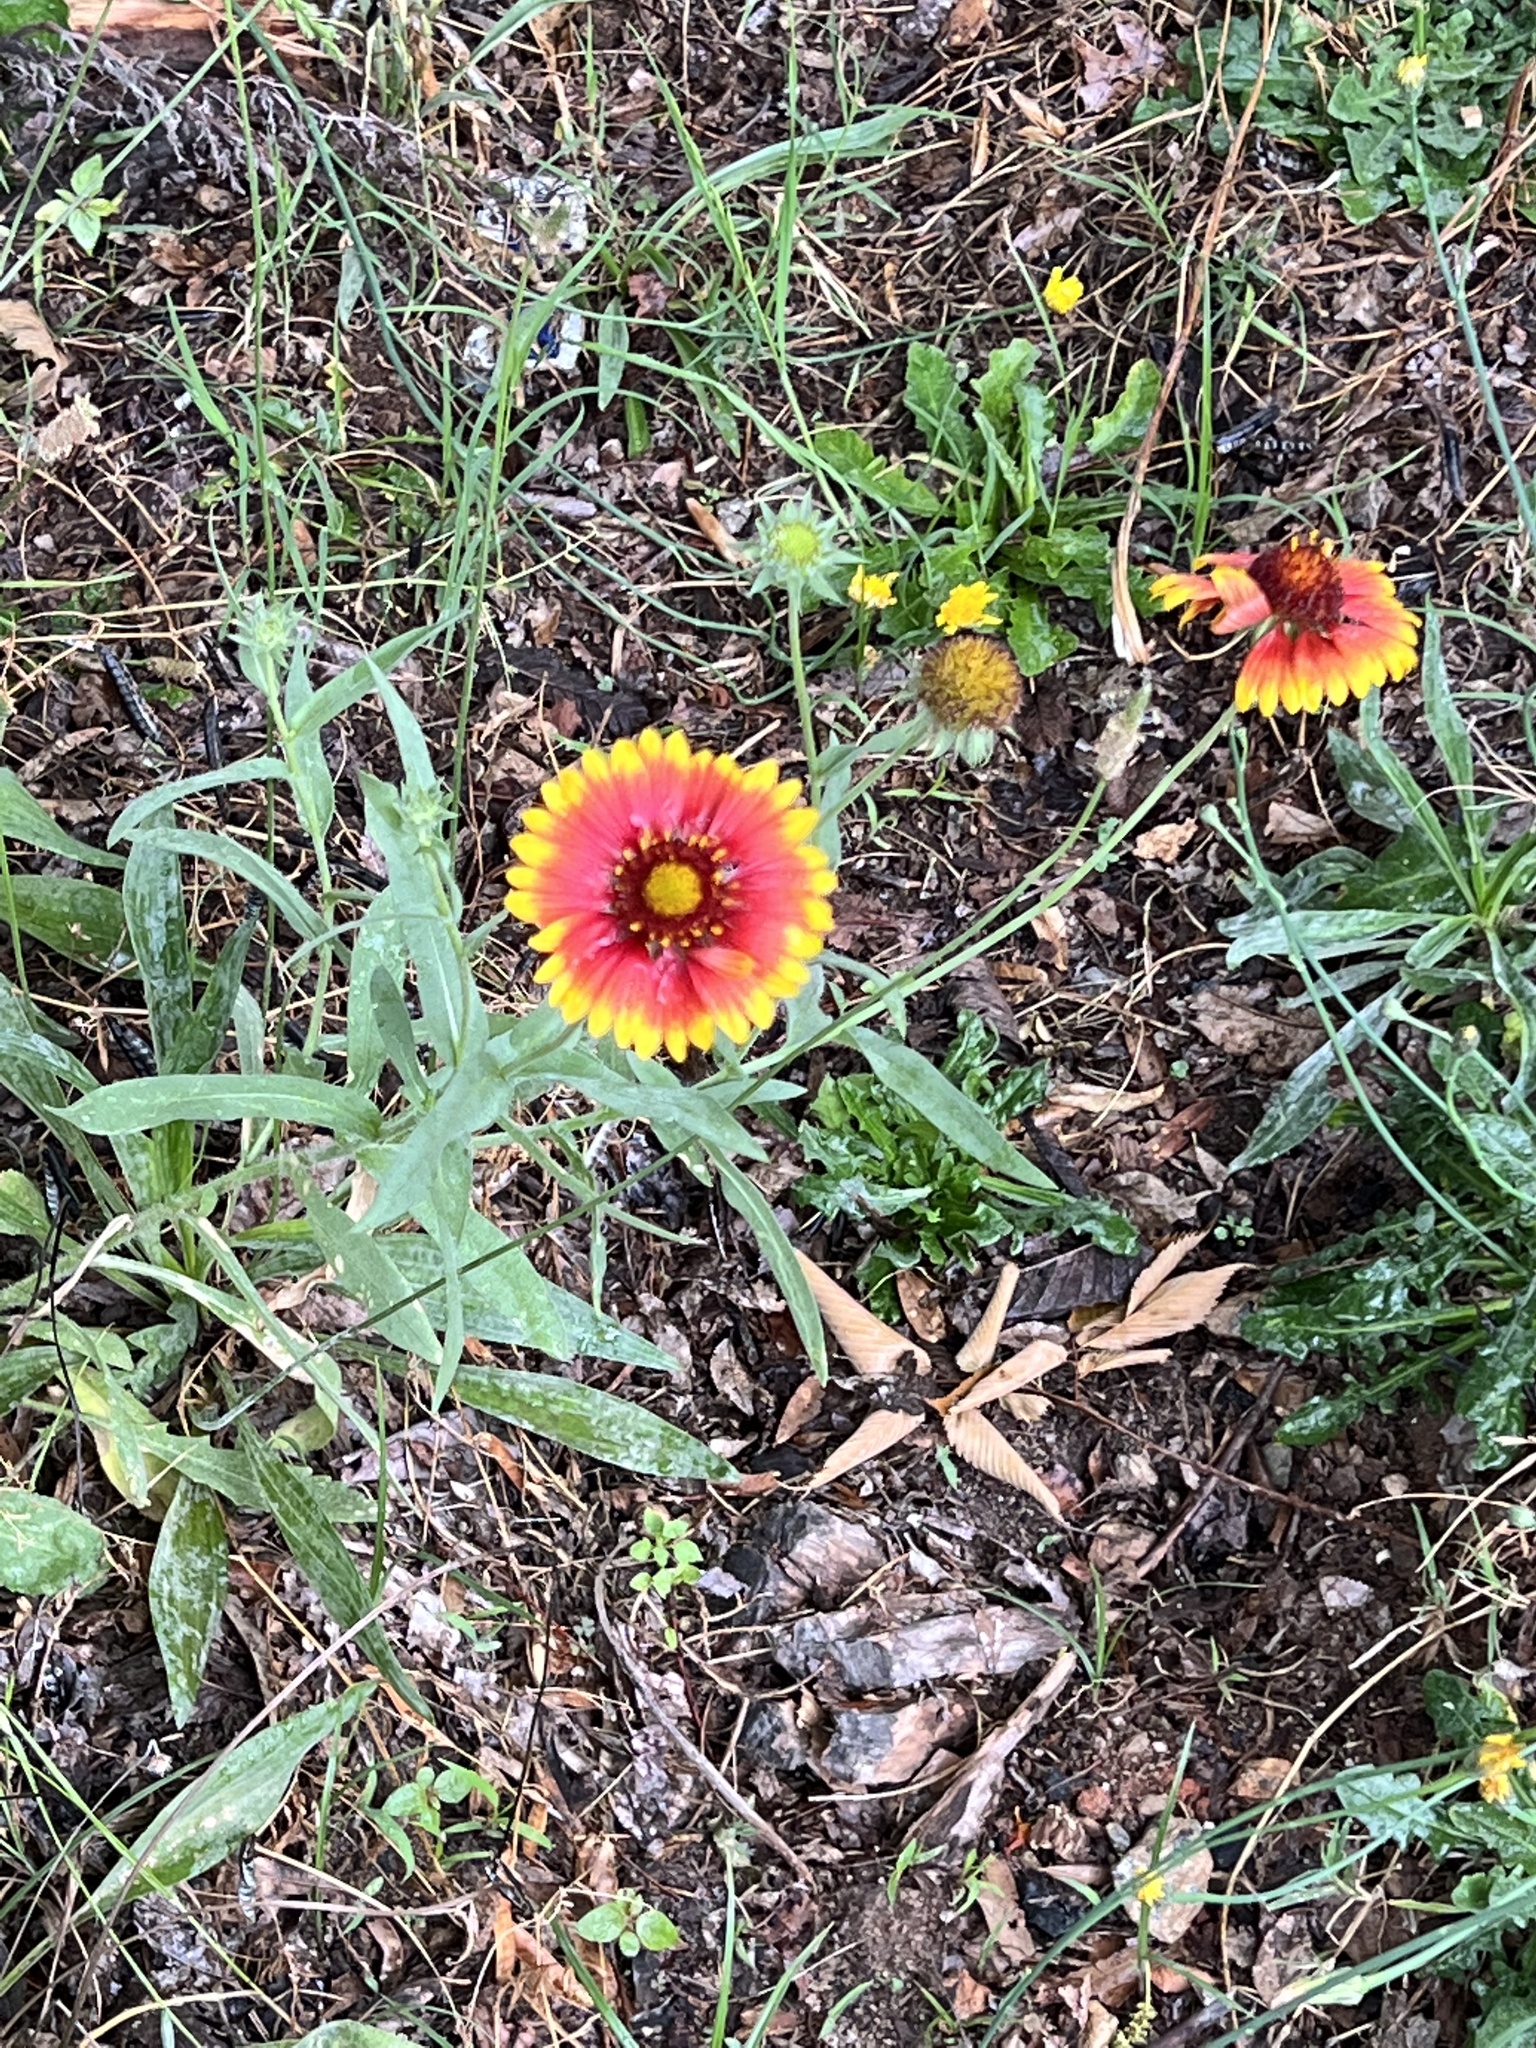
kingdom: Plantae
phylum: Tracheophyta
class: Magnoliopsida
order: Asterales
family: Asteraceae
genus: Gaillardia
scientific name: Gaillardia pulchella
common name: Firewheel
